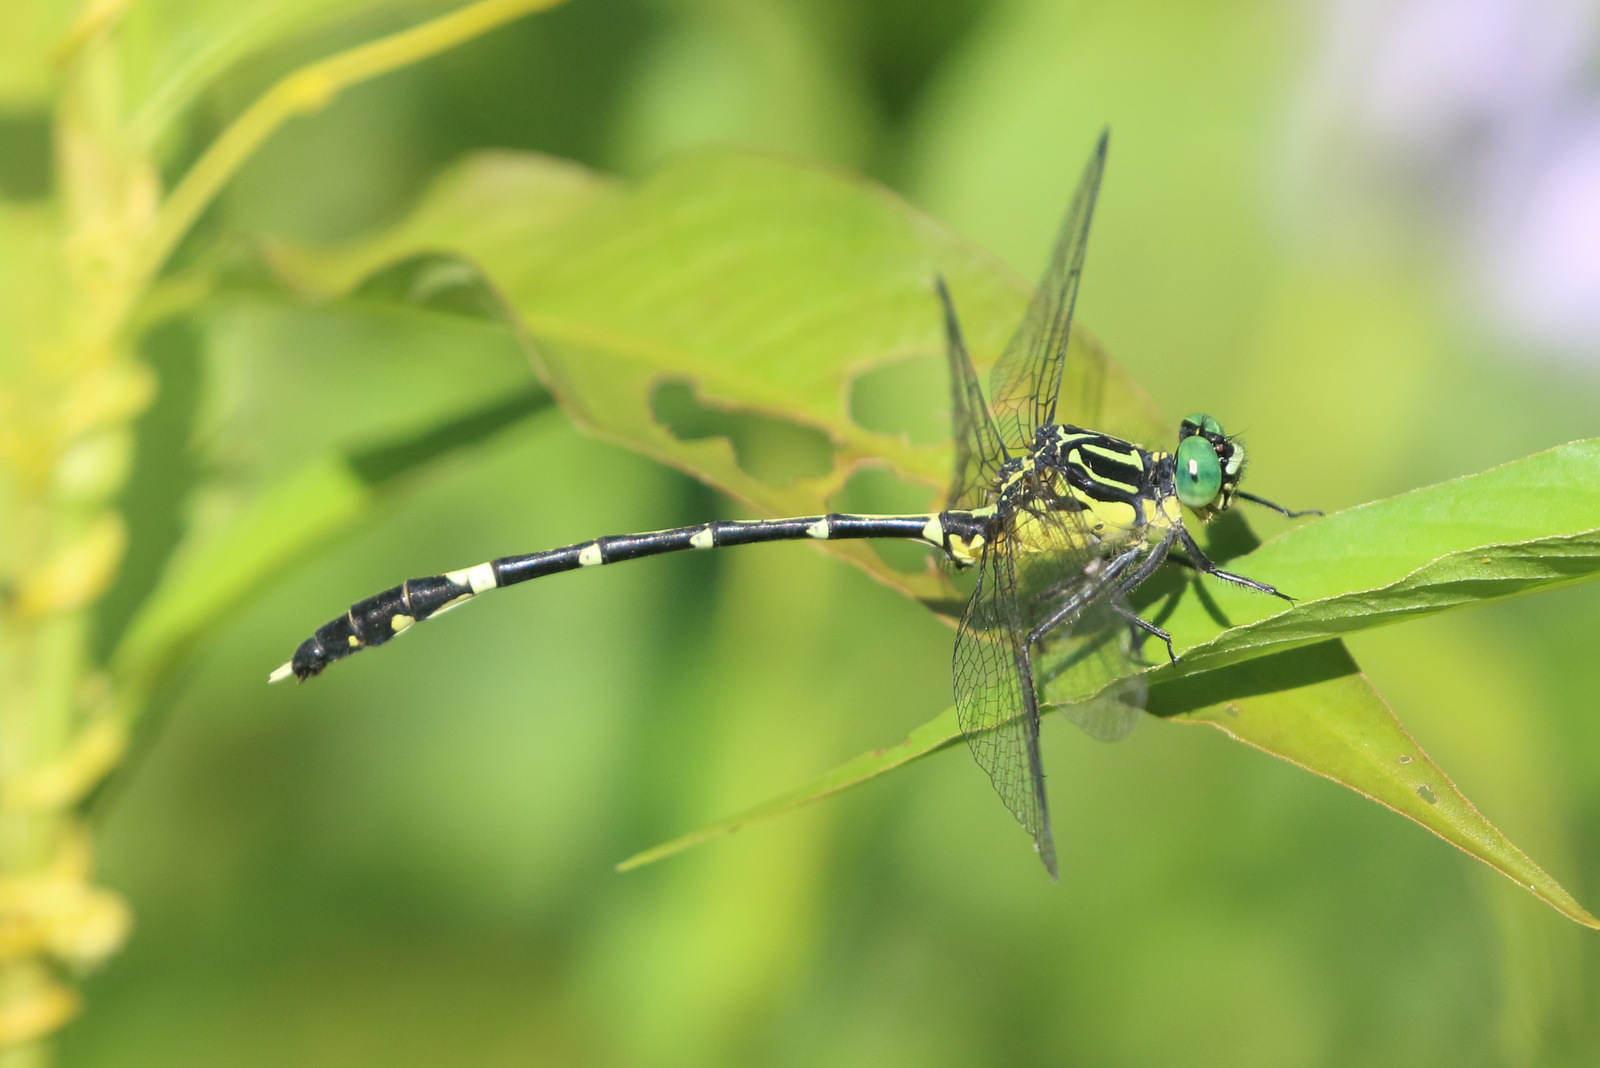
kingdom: Animalia
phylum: Arthropoda
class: Insecta
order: Odonata
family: Gomphidae
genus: Austrogomphus
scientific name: Austrogomphus amphiclitus
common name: Pale hunter
